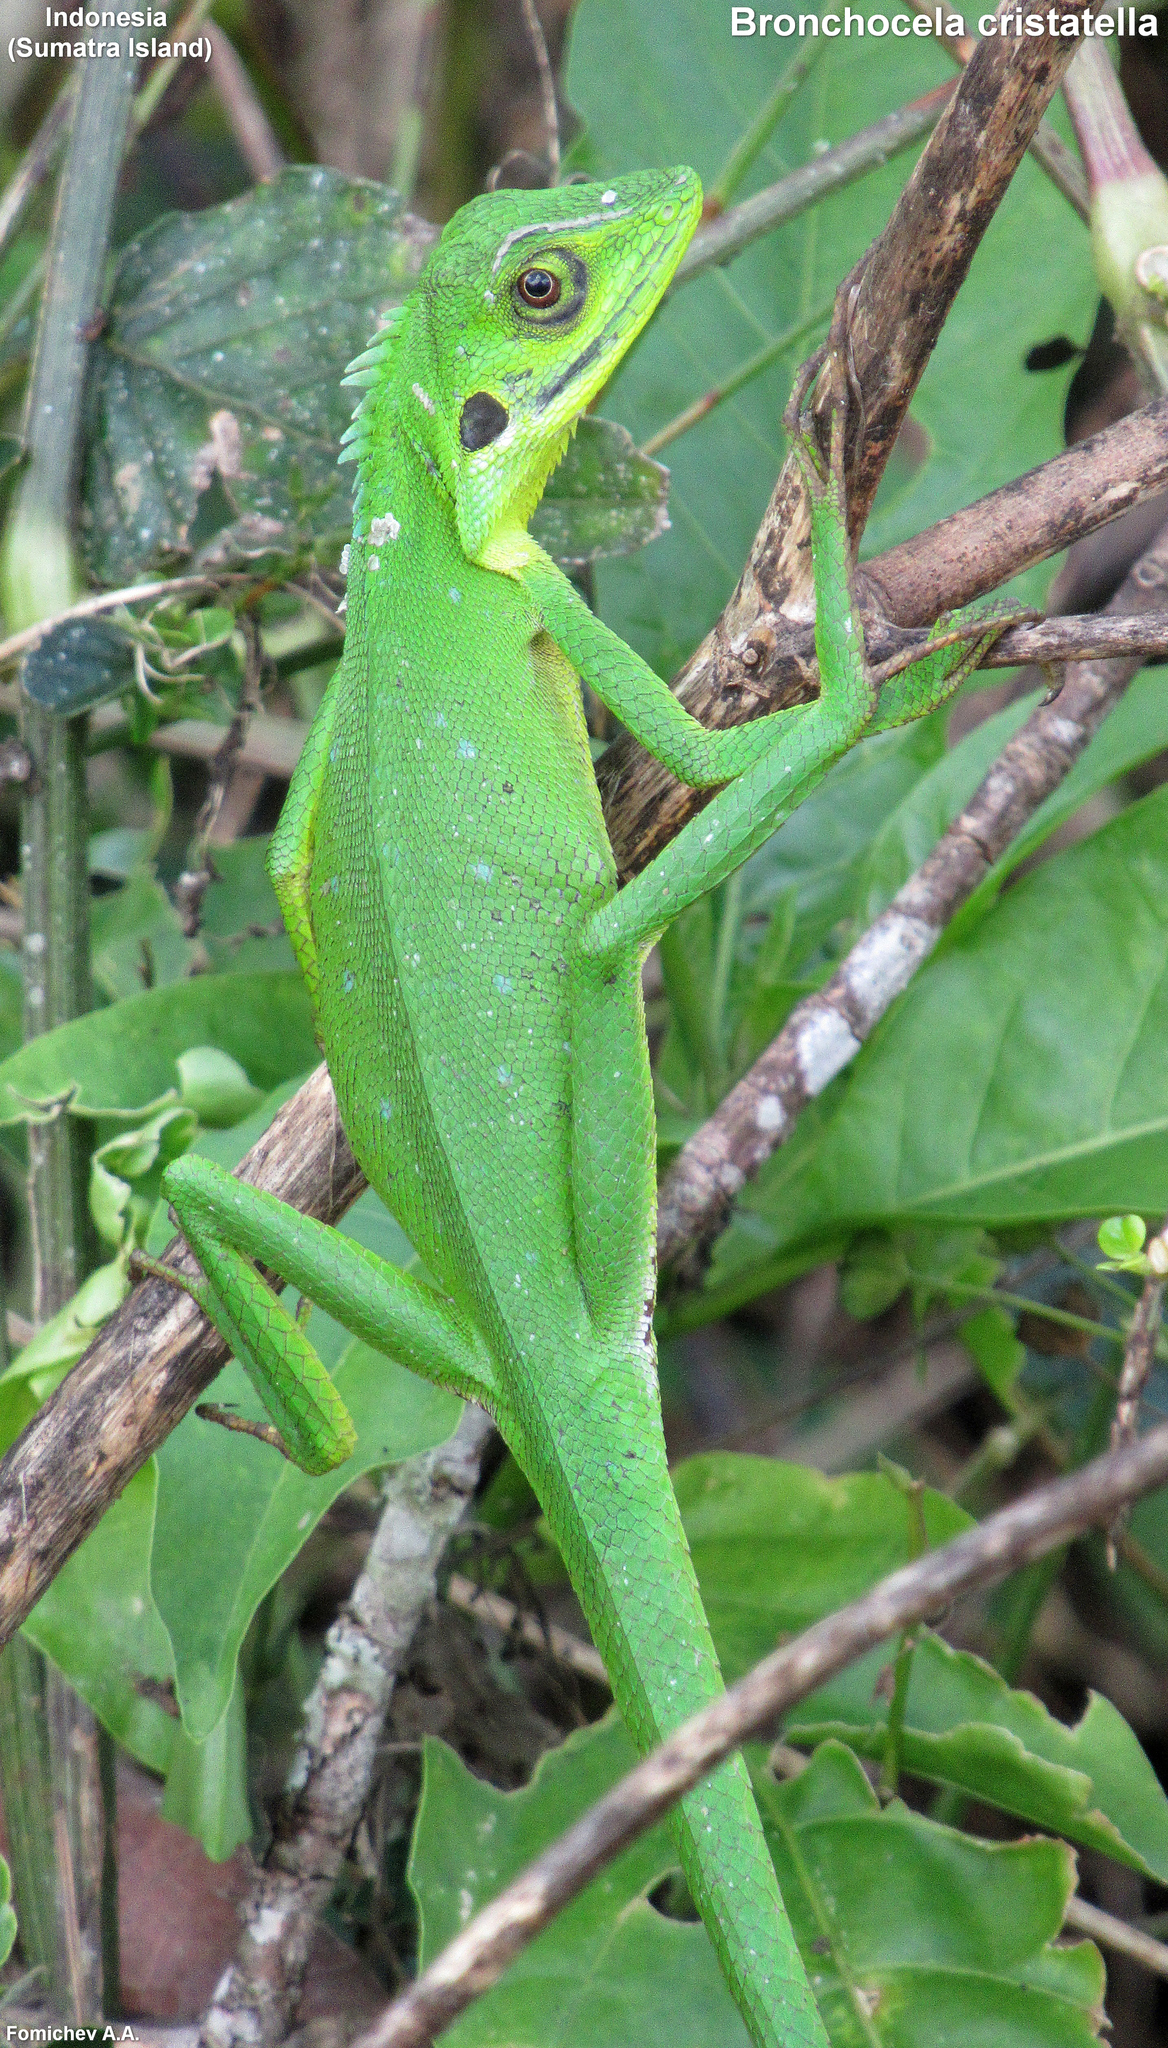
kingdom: Animalia
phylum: Chordata
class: Squamata
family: Agamidae
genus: Bronchocela
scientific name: Bronchocela cristatella
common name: Green crested lizard
